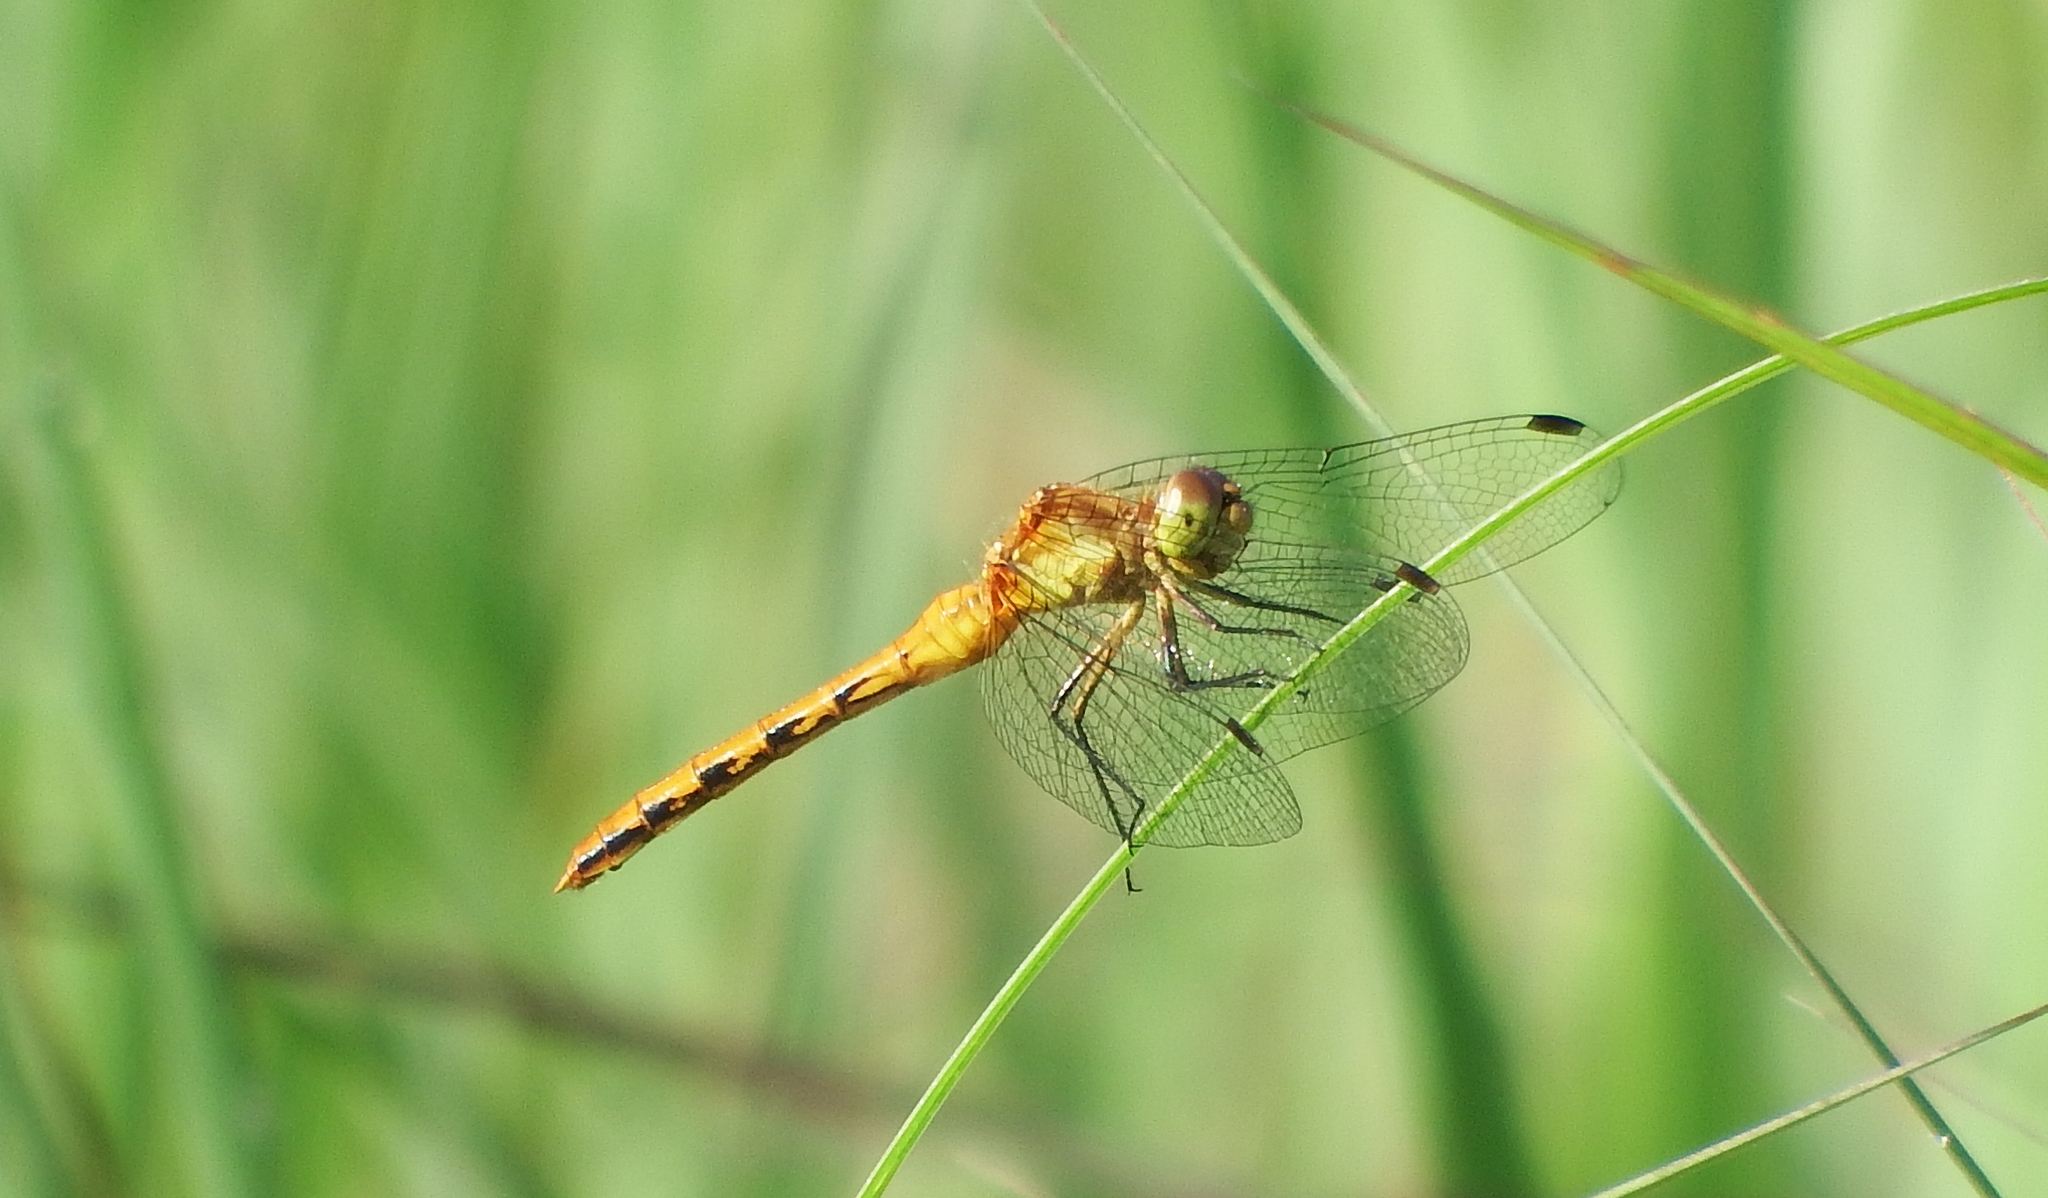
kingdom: Animalia
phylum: Arthropoda
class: Insecta
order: Odonata
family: Libellulidae
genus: Sympetrum
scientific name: Sympetrum
